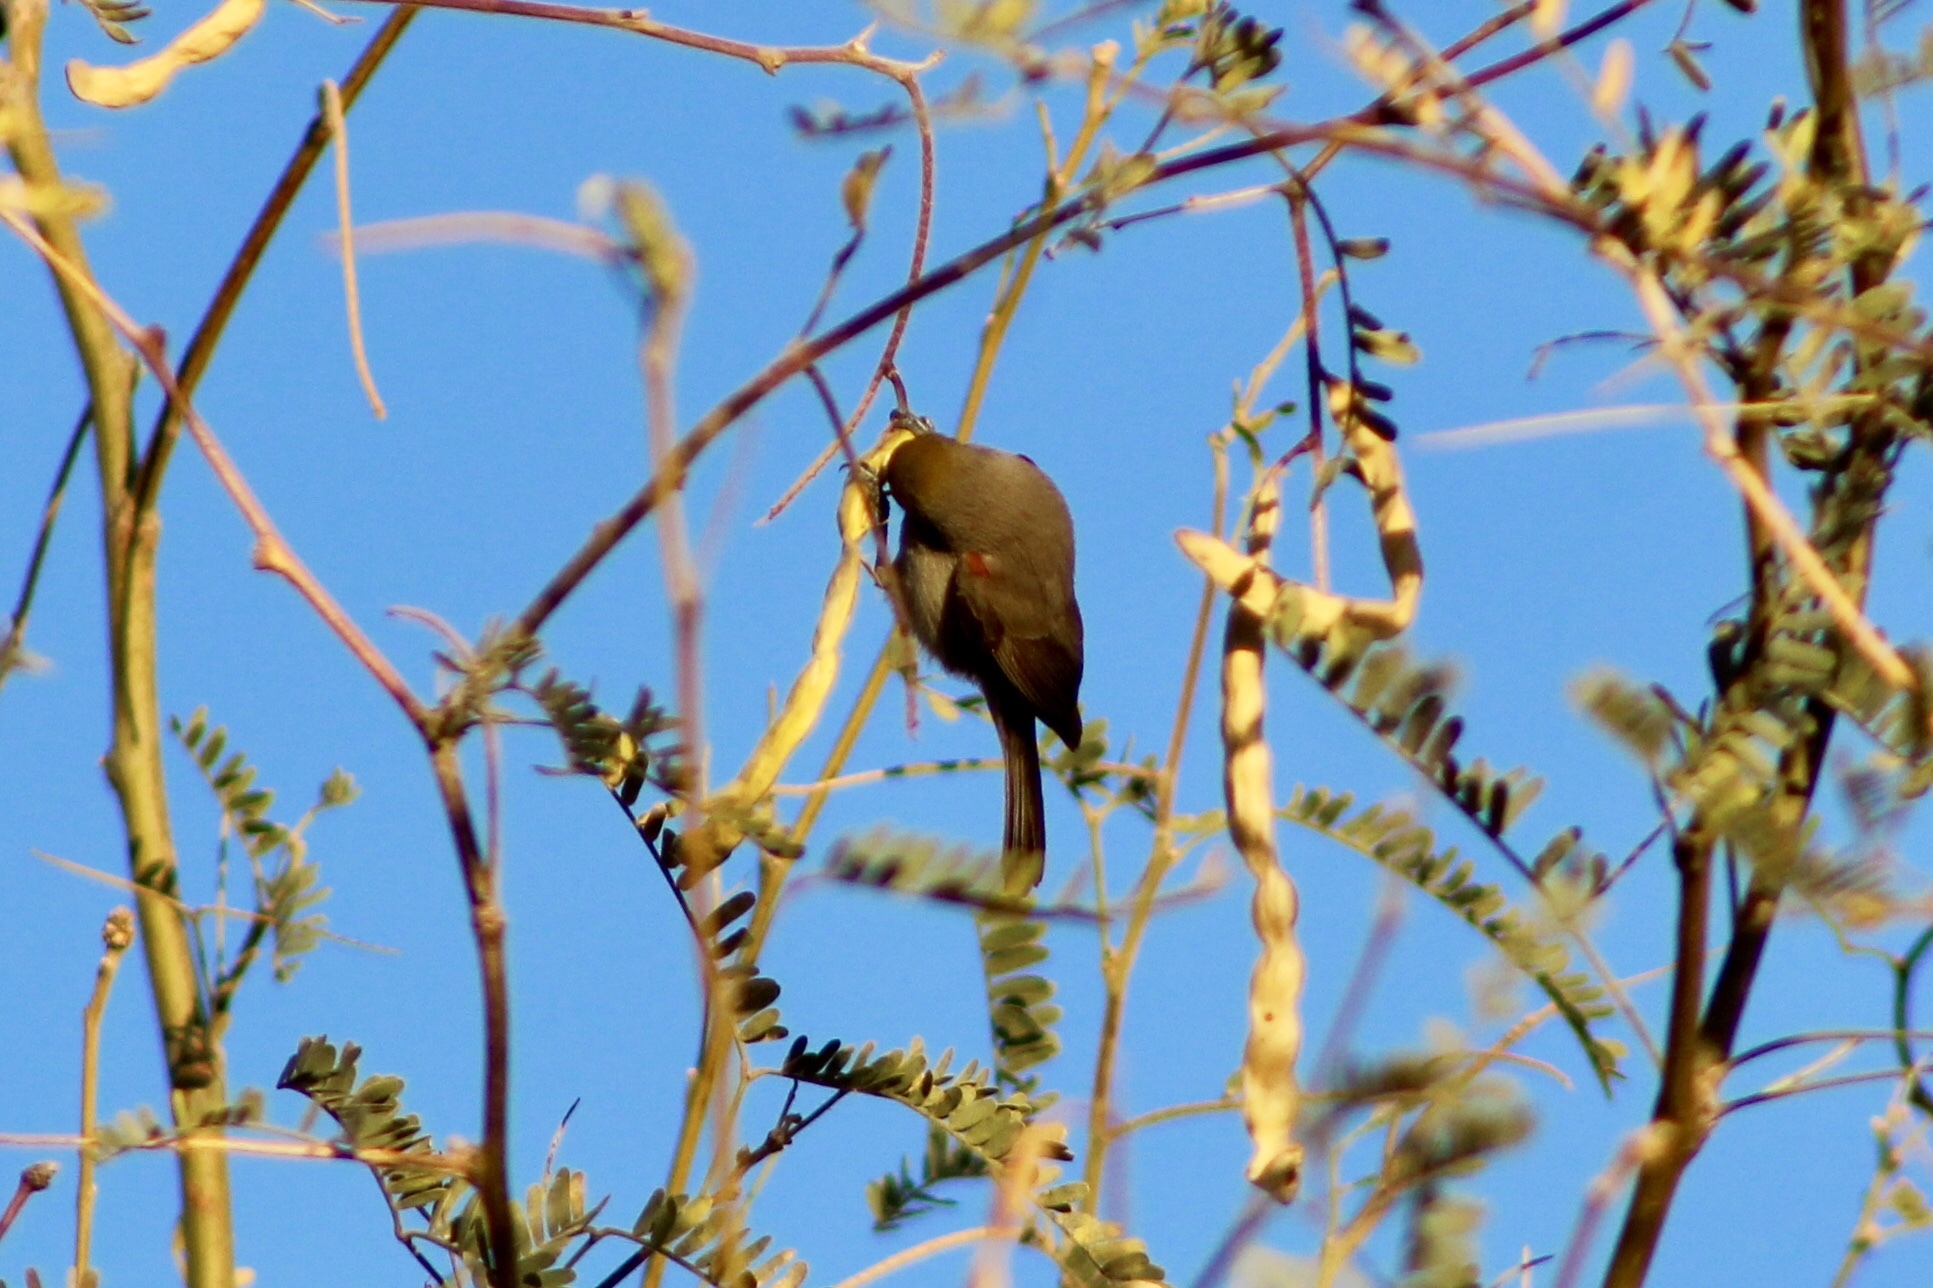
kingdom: Animalia
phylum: Chordata
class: Aves
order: Passeriformes
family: Remizidae
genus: Auriparus
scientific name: Auriparus flaviceps
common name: Verdin
